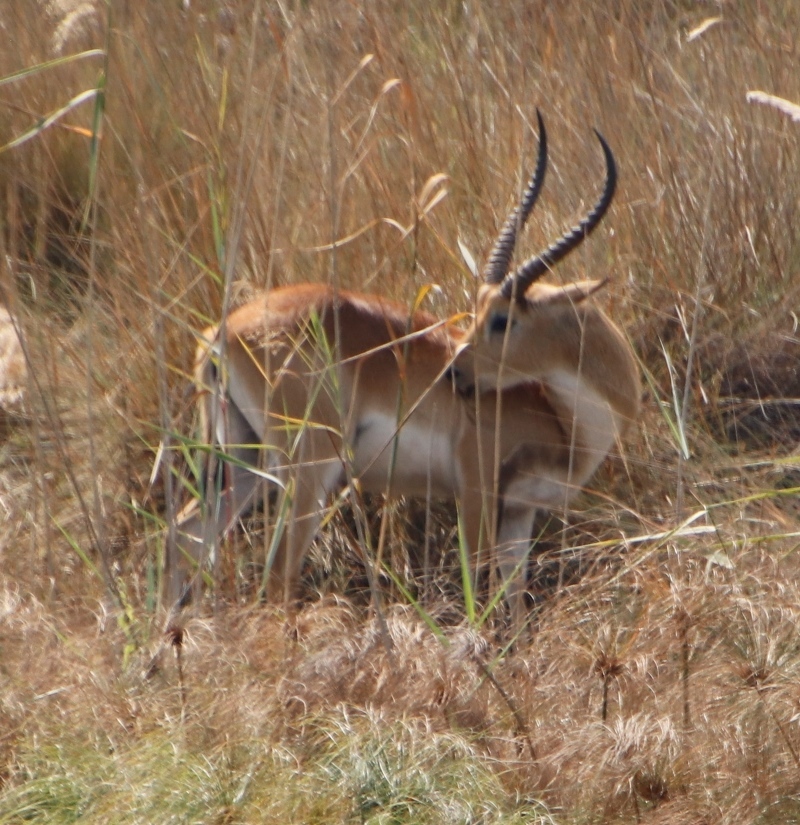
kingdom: Animalia
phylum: Chordata
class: Mammalia
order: Artiodactyla
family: Bovidae
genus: Kobus
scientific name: Kobus leche
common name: Lechwe
